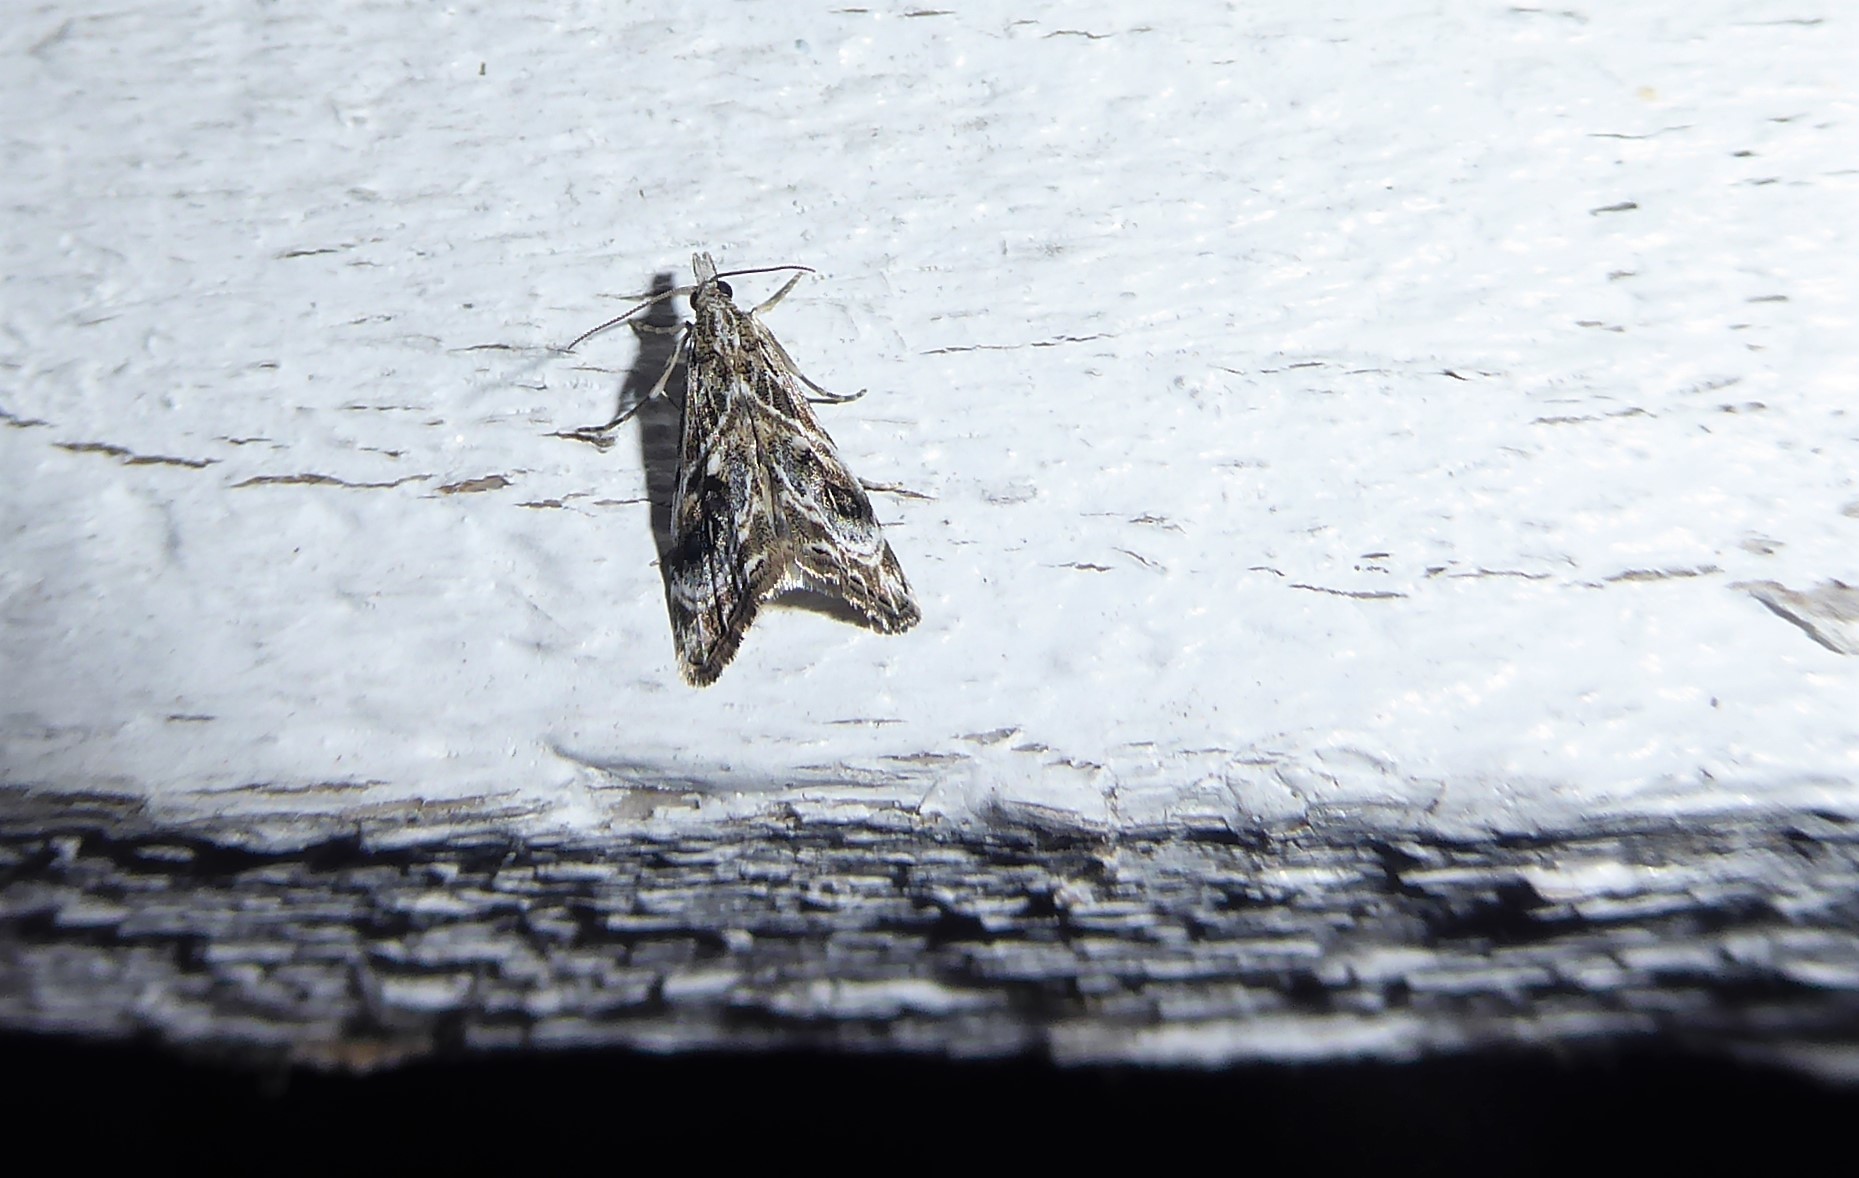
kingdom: Animalia
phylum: Arthropoda
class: Insecta
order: Lepidoptera
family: Crambidae
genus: Gadira
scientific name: Gadira acerella
